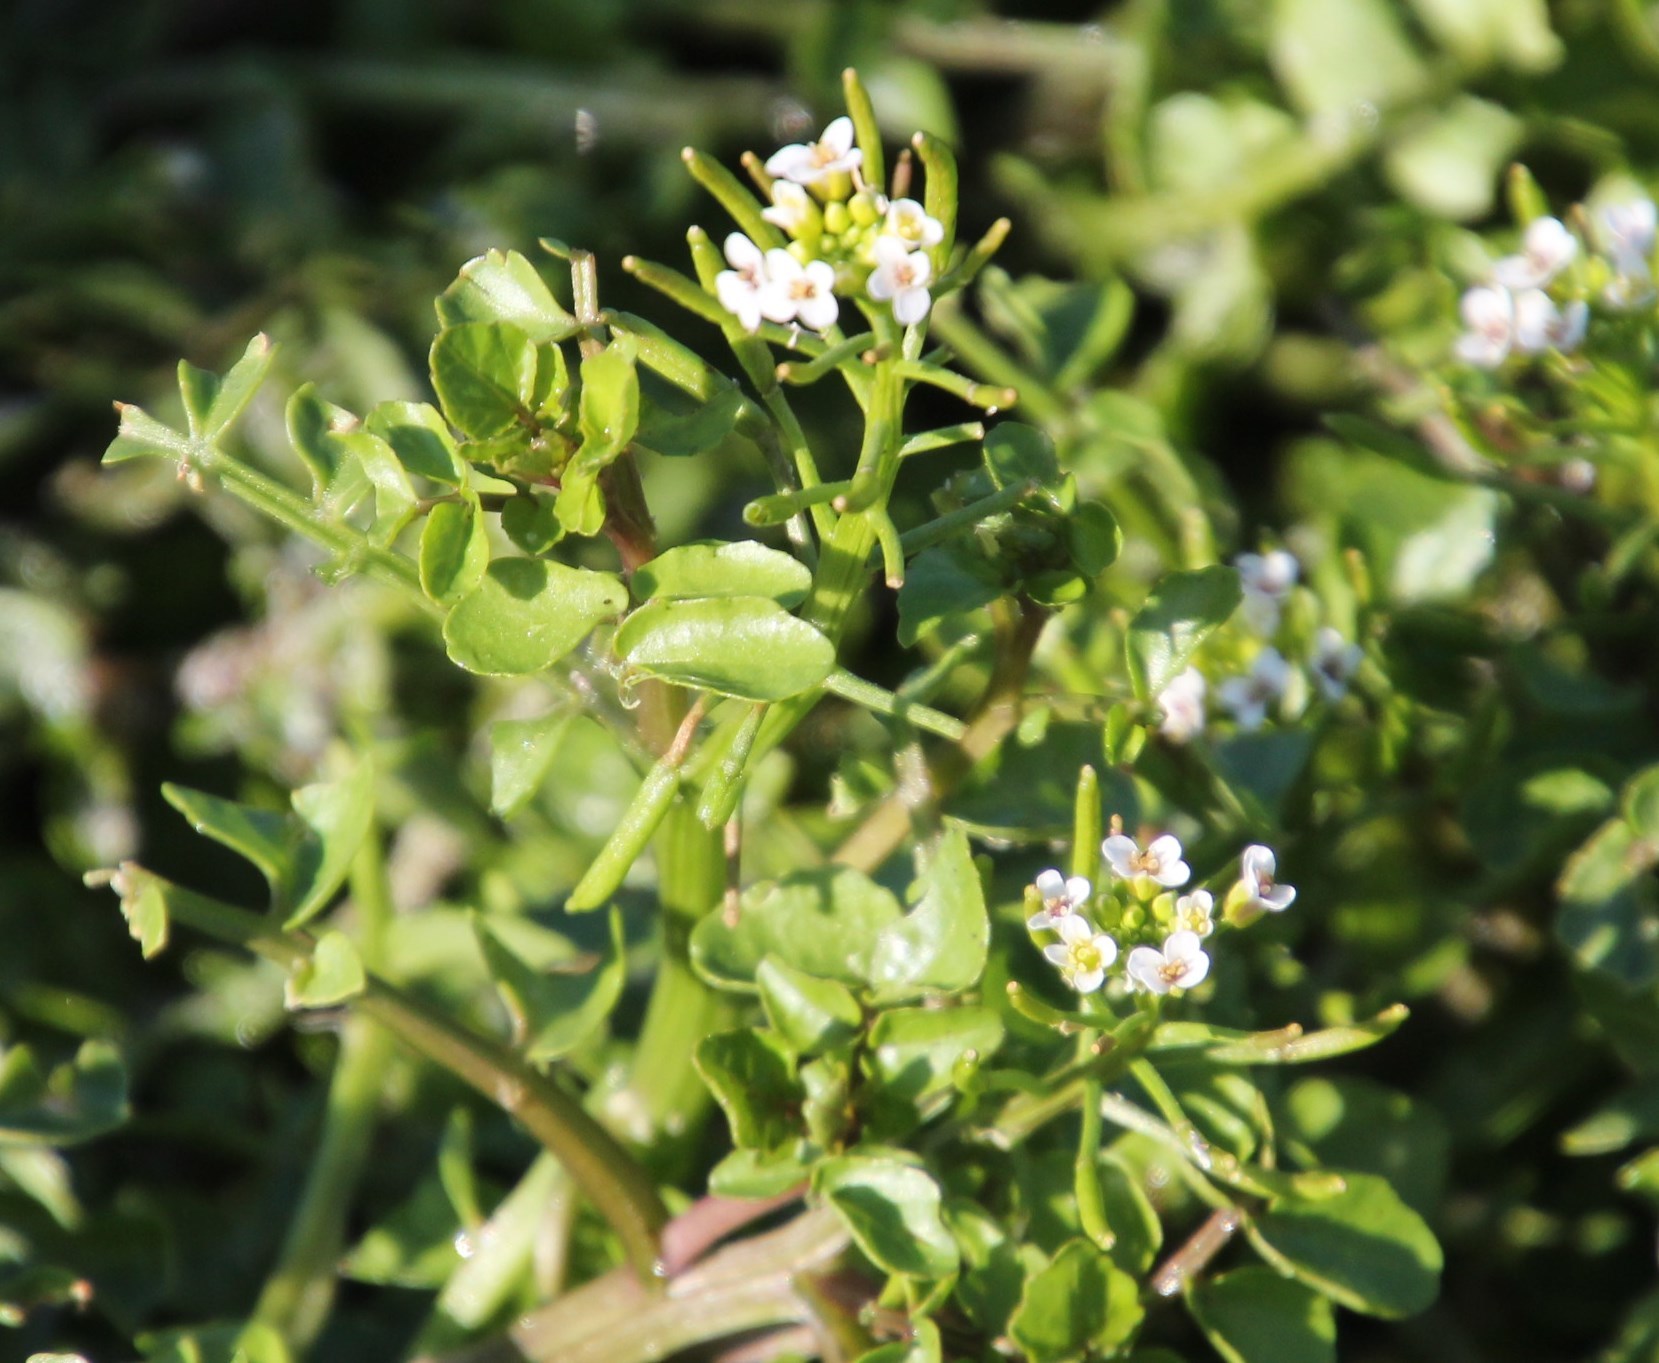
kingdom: Plantae
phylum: Tracheophyta
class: Magnoliopsida
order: Brassicales
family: Brassicaceae
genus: Nasturtium
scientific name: Nasturtium officinale
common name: Watercress
